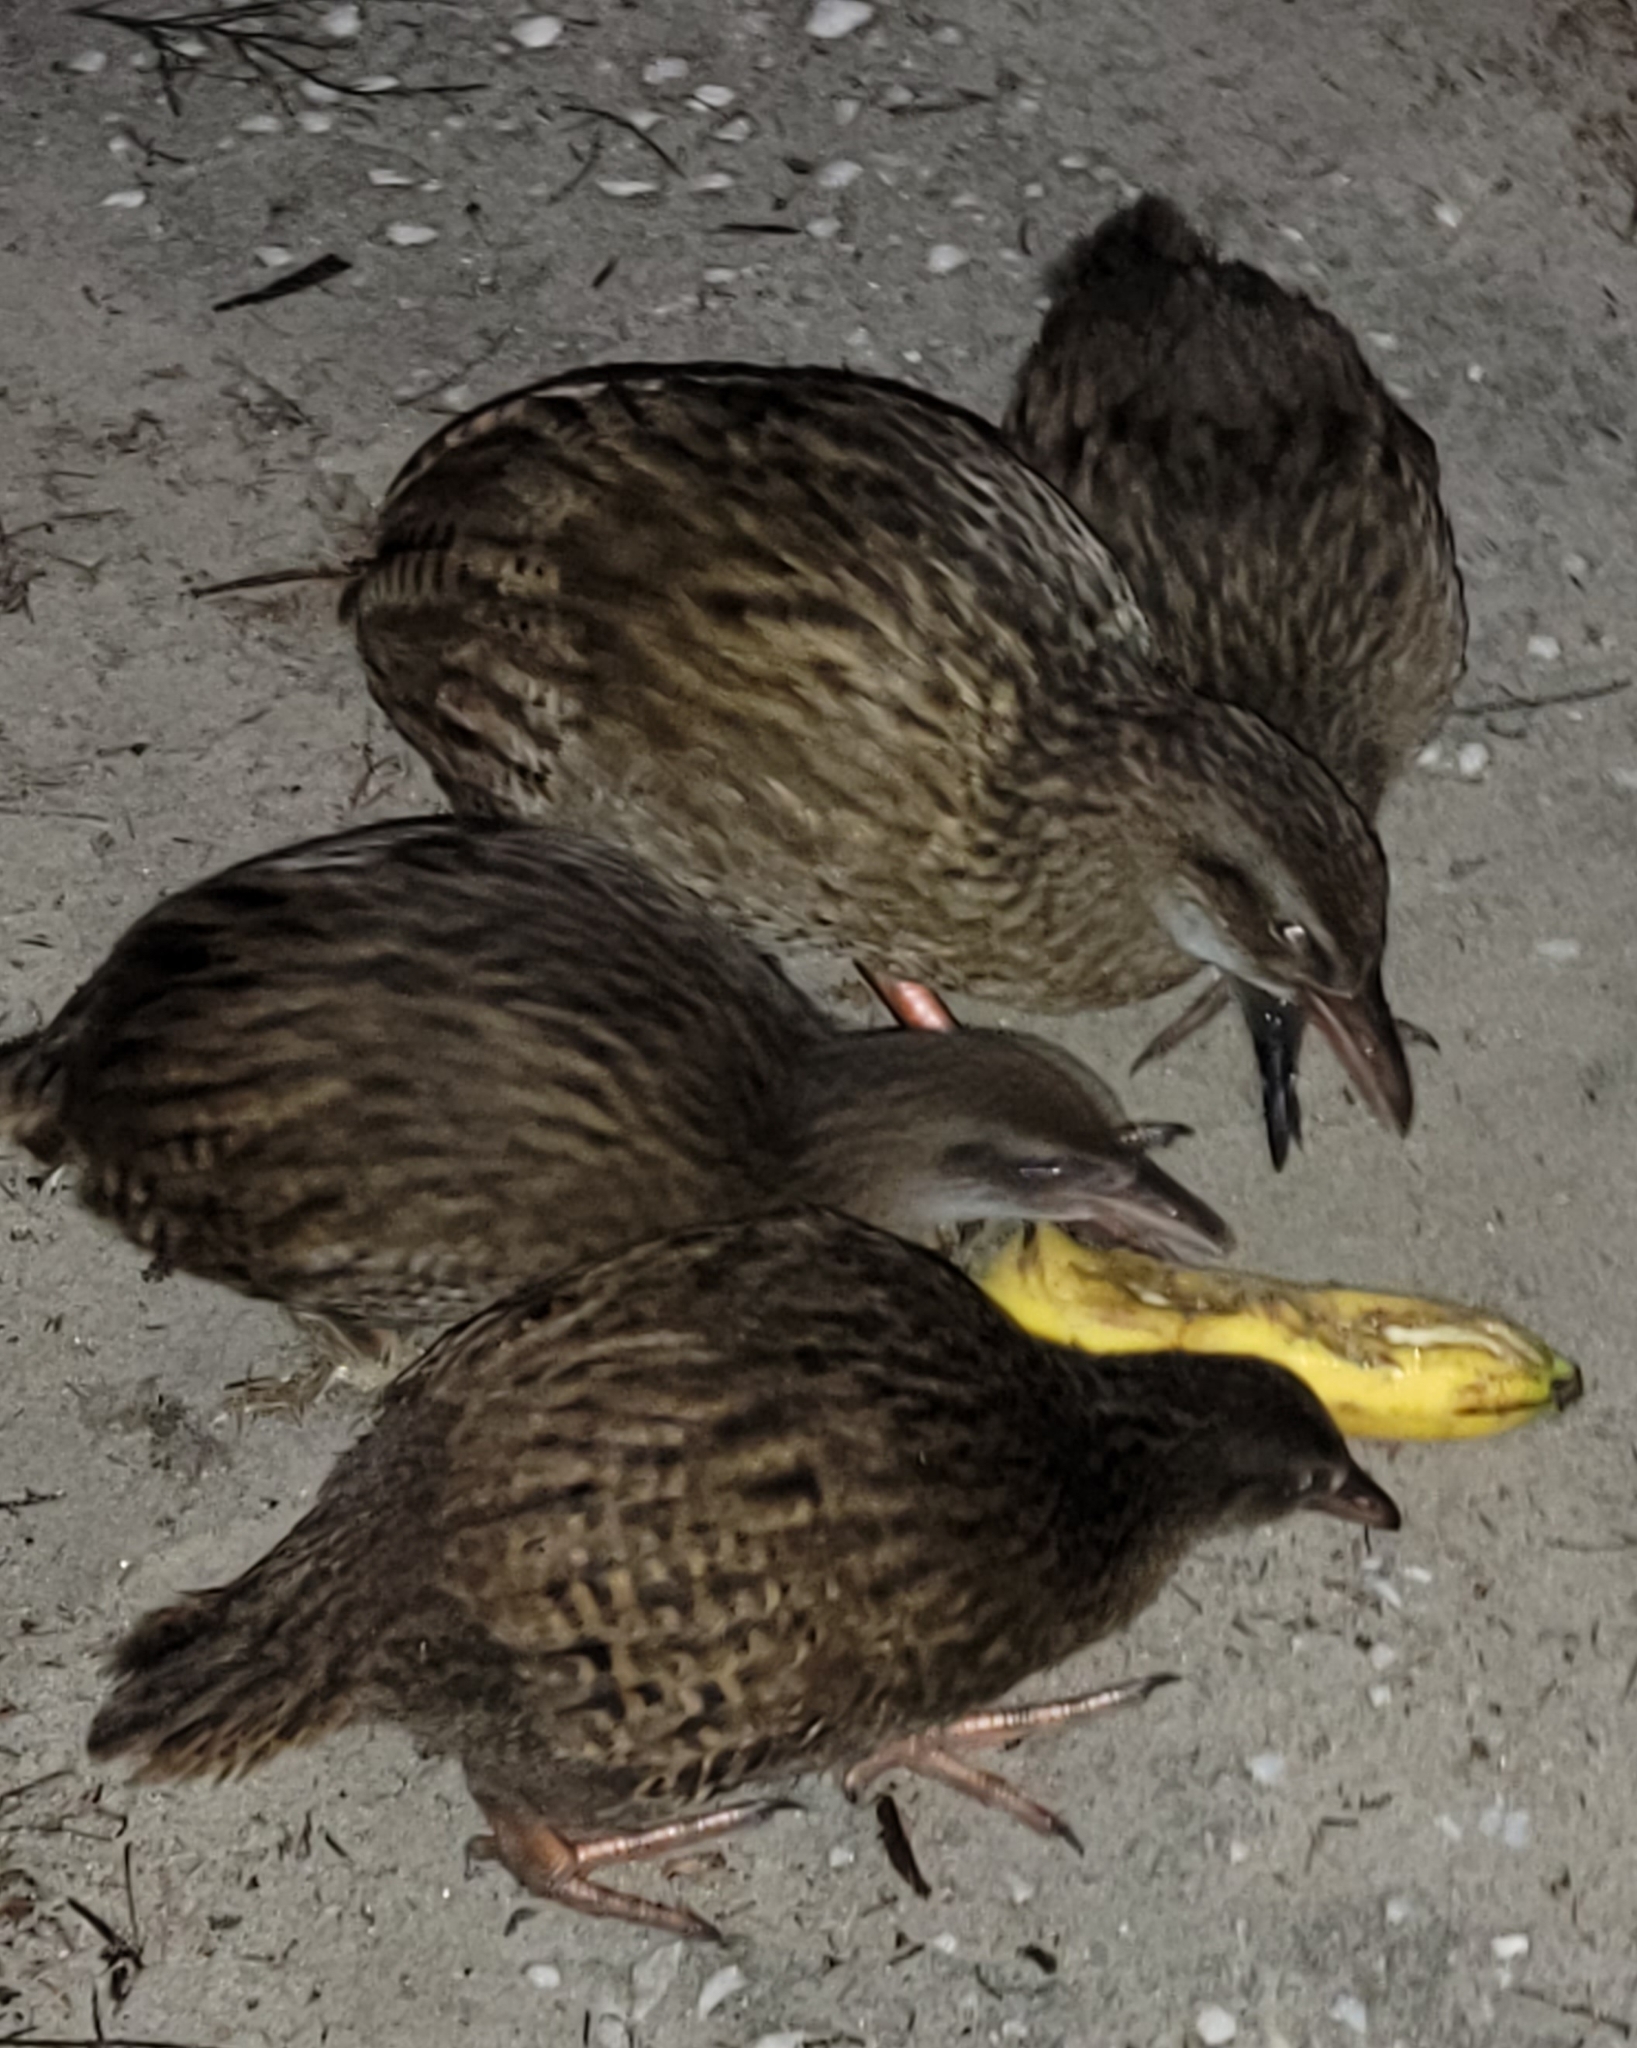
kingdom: Animalia
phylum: Chordata
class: Aves
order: Gruiformes
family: Rallidae
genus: Gallirallus
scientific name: Gallirallus australis
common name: Weka
